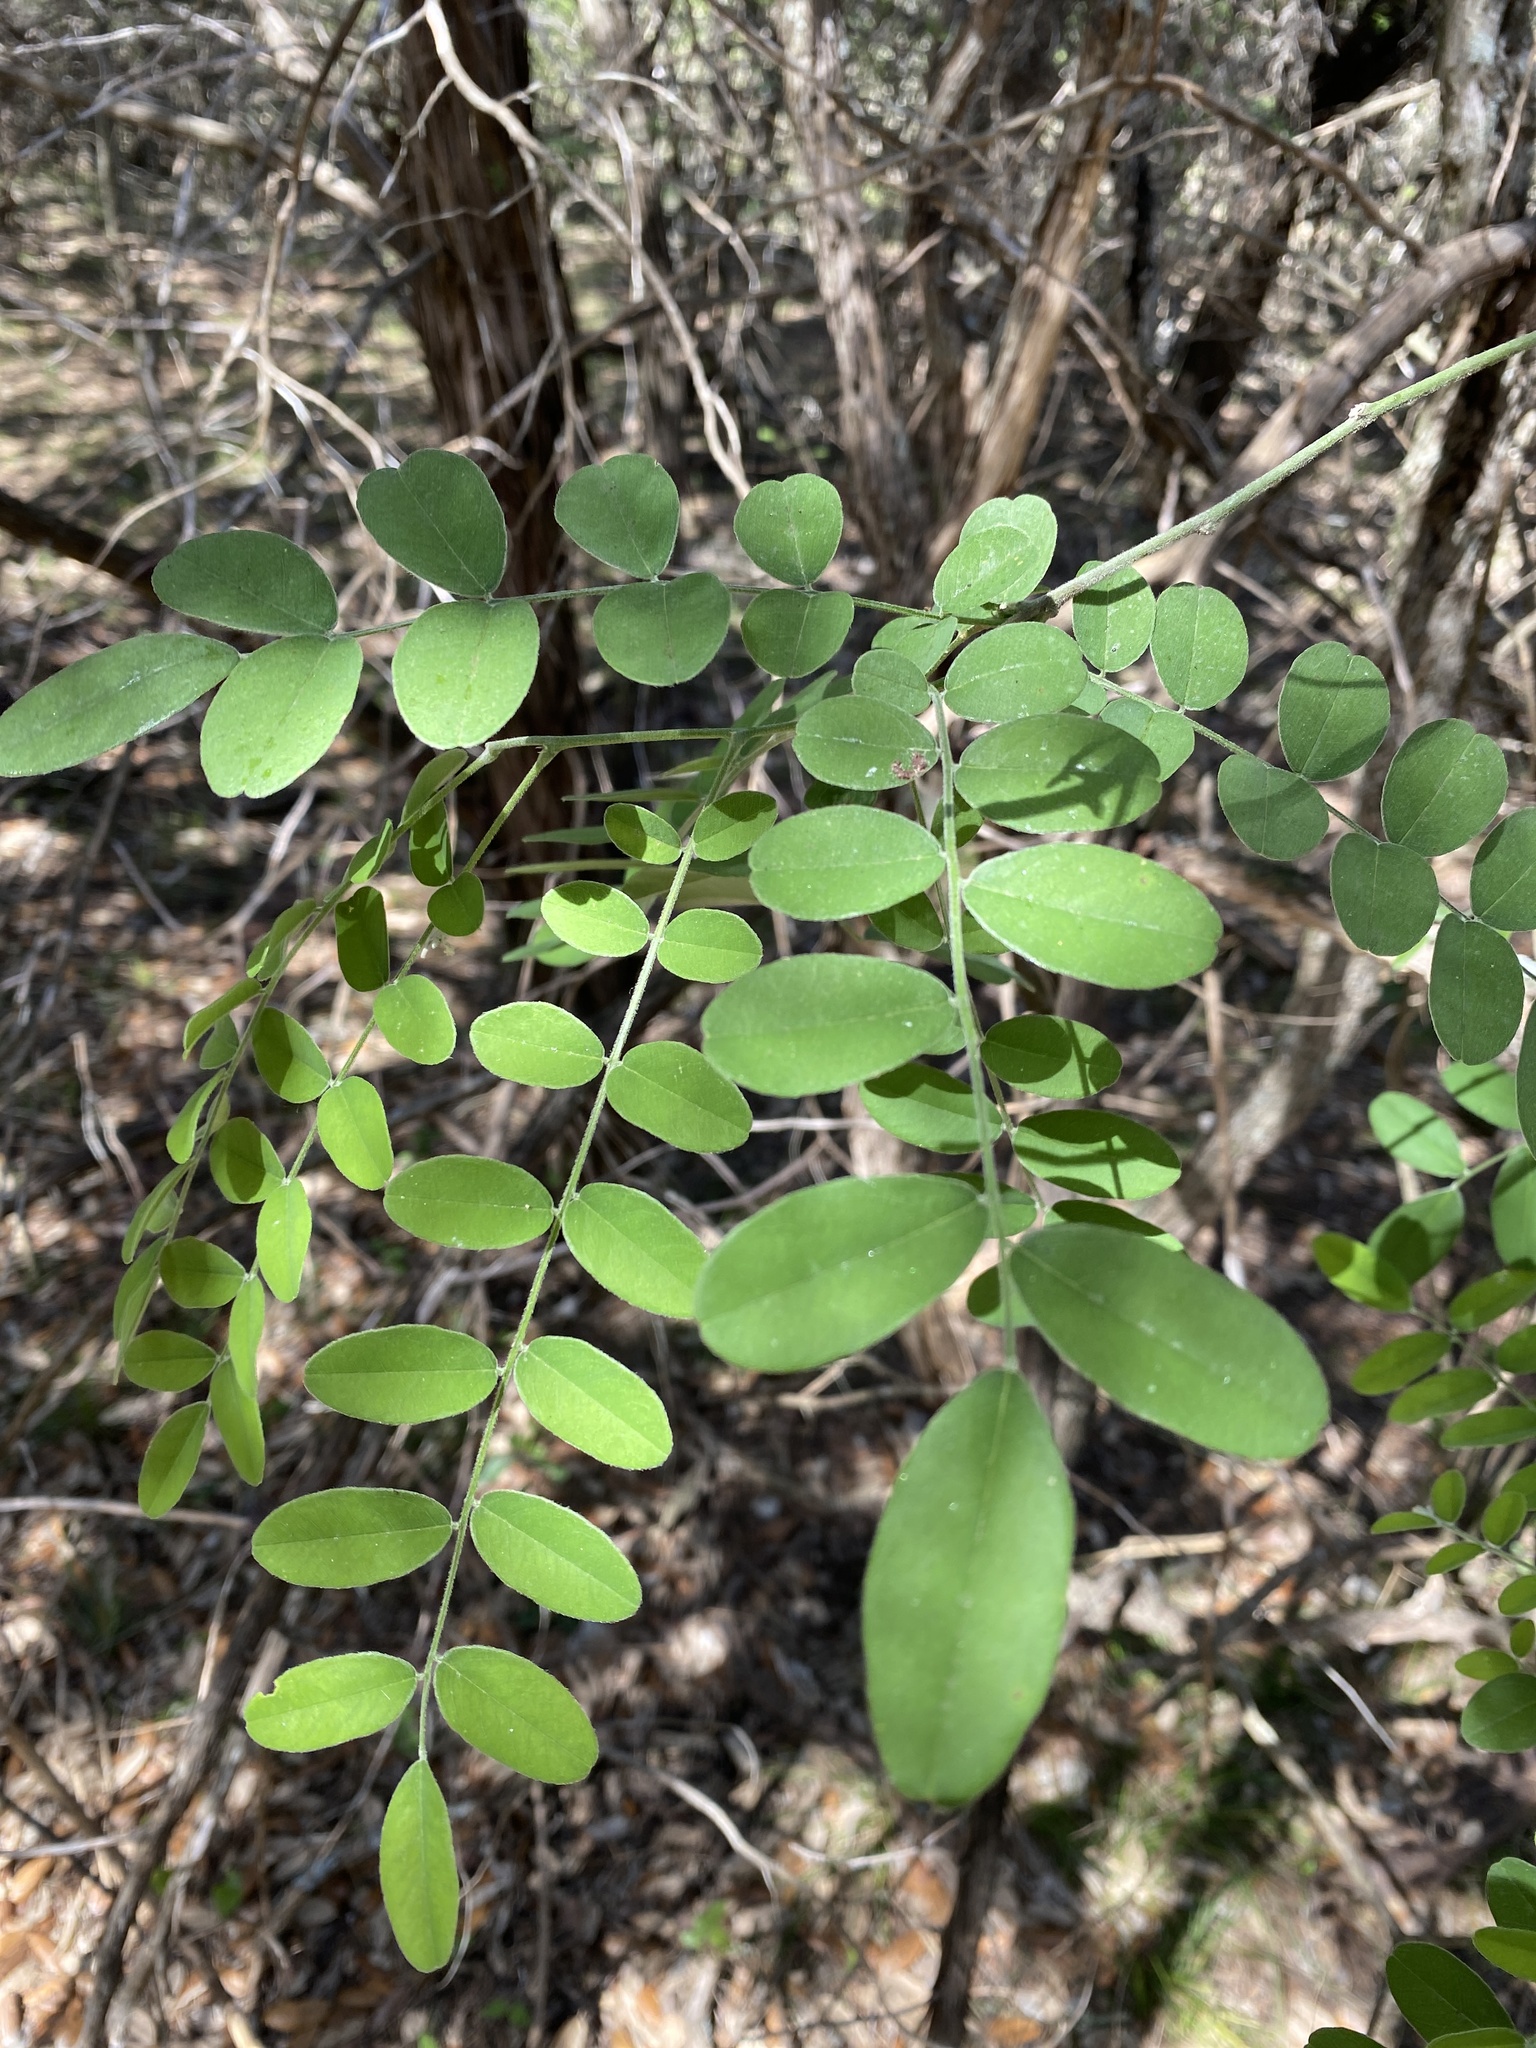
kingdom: Plantae
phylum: Tracheophyta
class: Magnoliopsida
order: Fabales
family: Fabaceae
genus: Styphnolobium
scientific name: Styphnolobium affine
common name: Texas sophora
